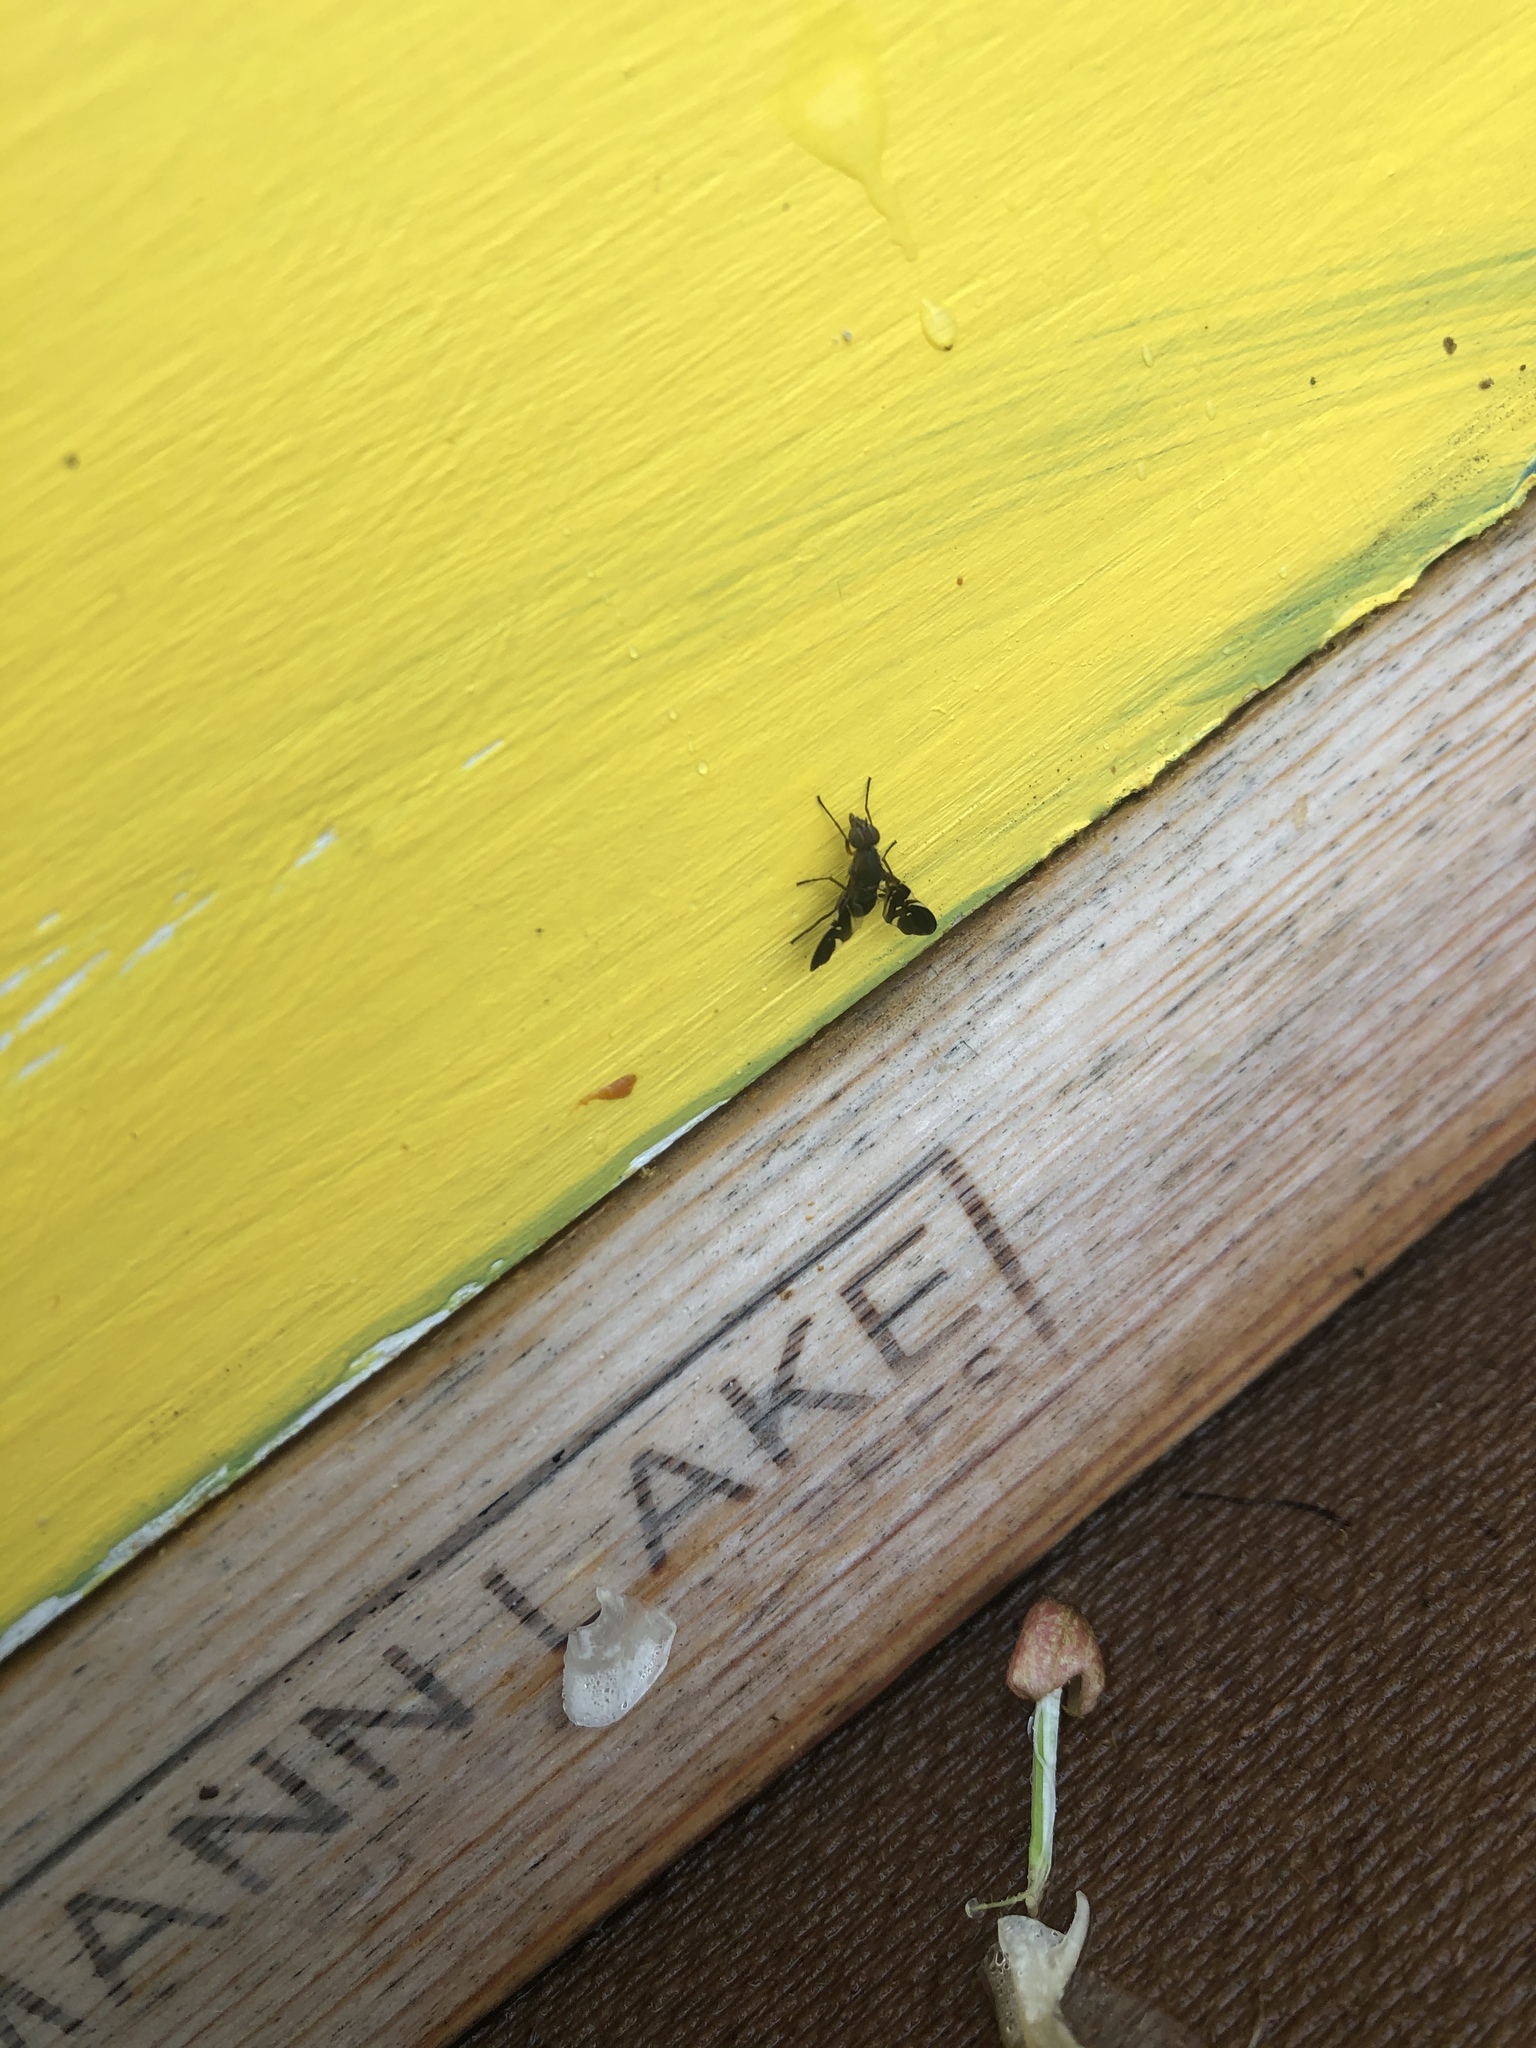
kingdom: Animalia
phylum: Arthropoda
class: Insecta
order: Diptera
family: Ulidiidae
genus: Delphinia
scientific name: Delphinia picta
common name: Common picture-winged fly
